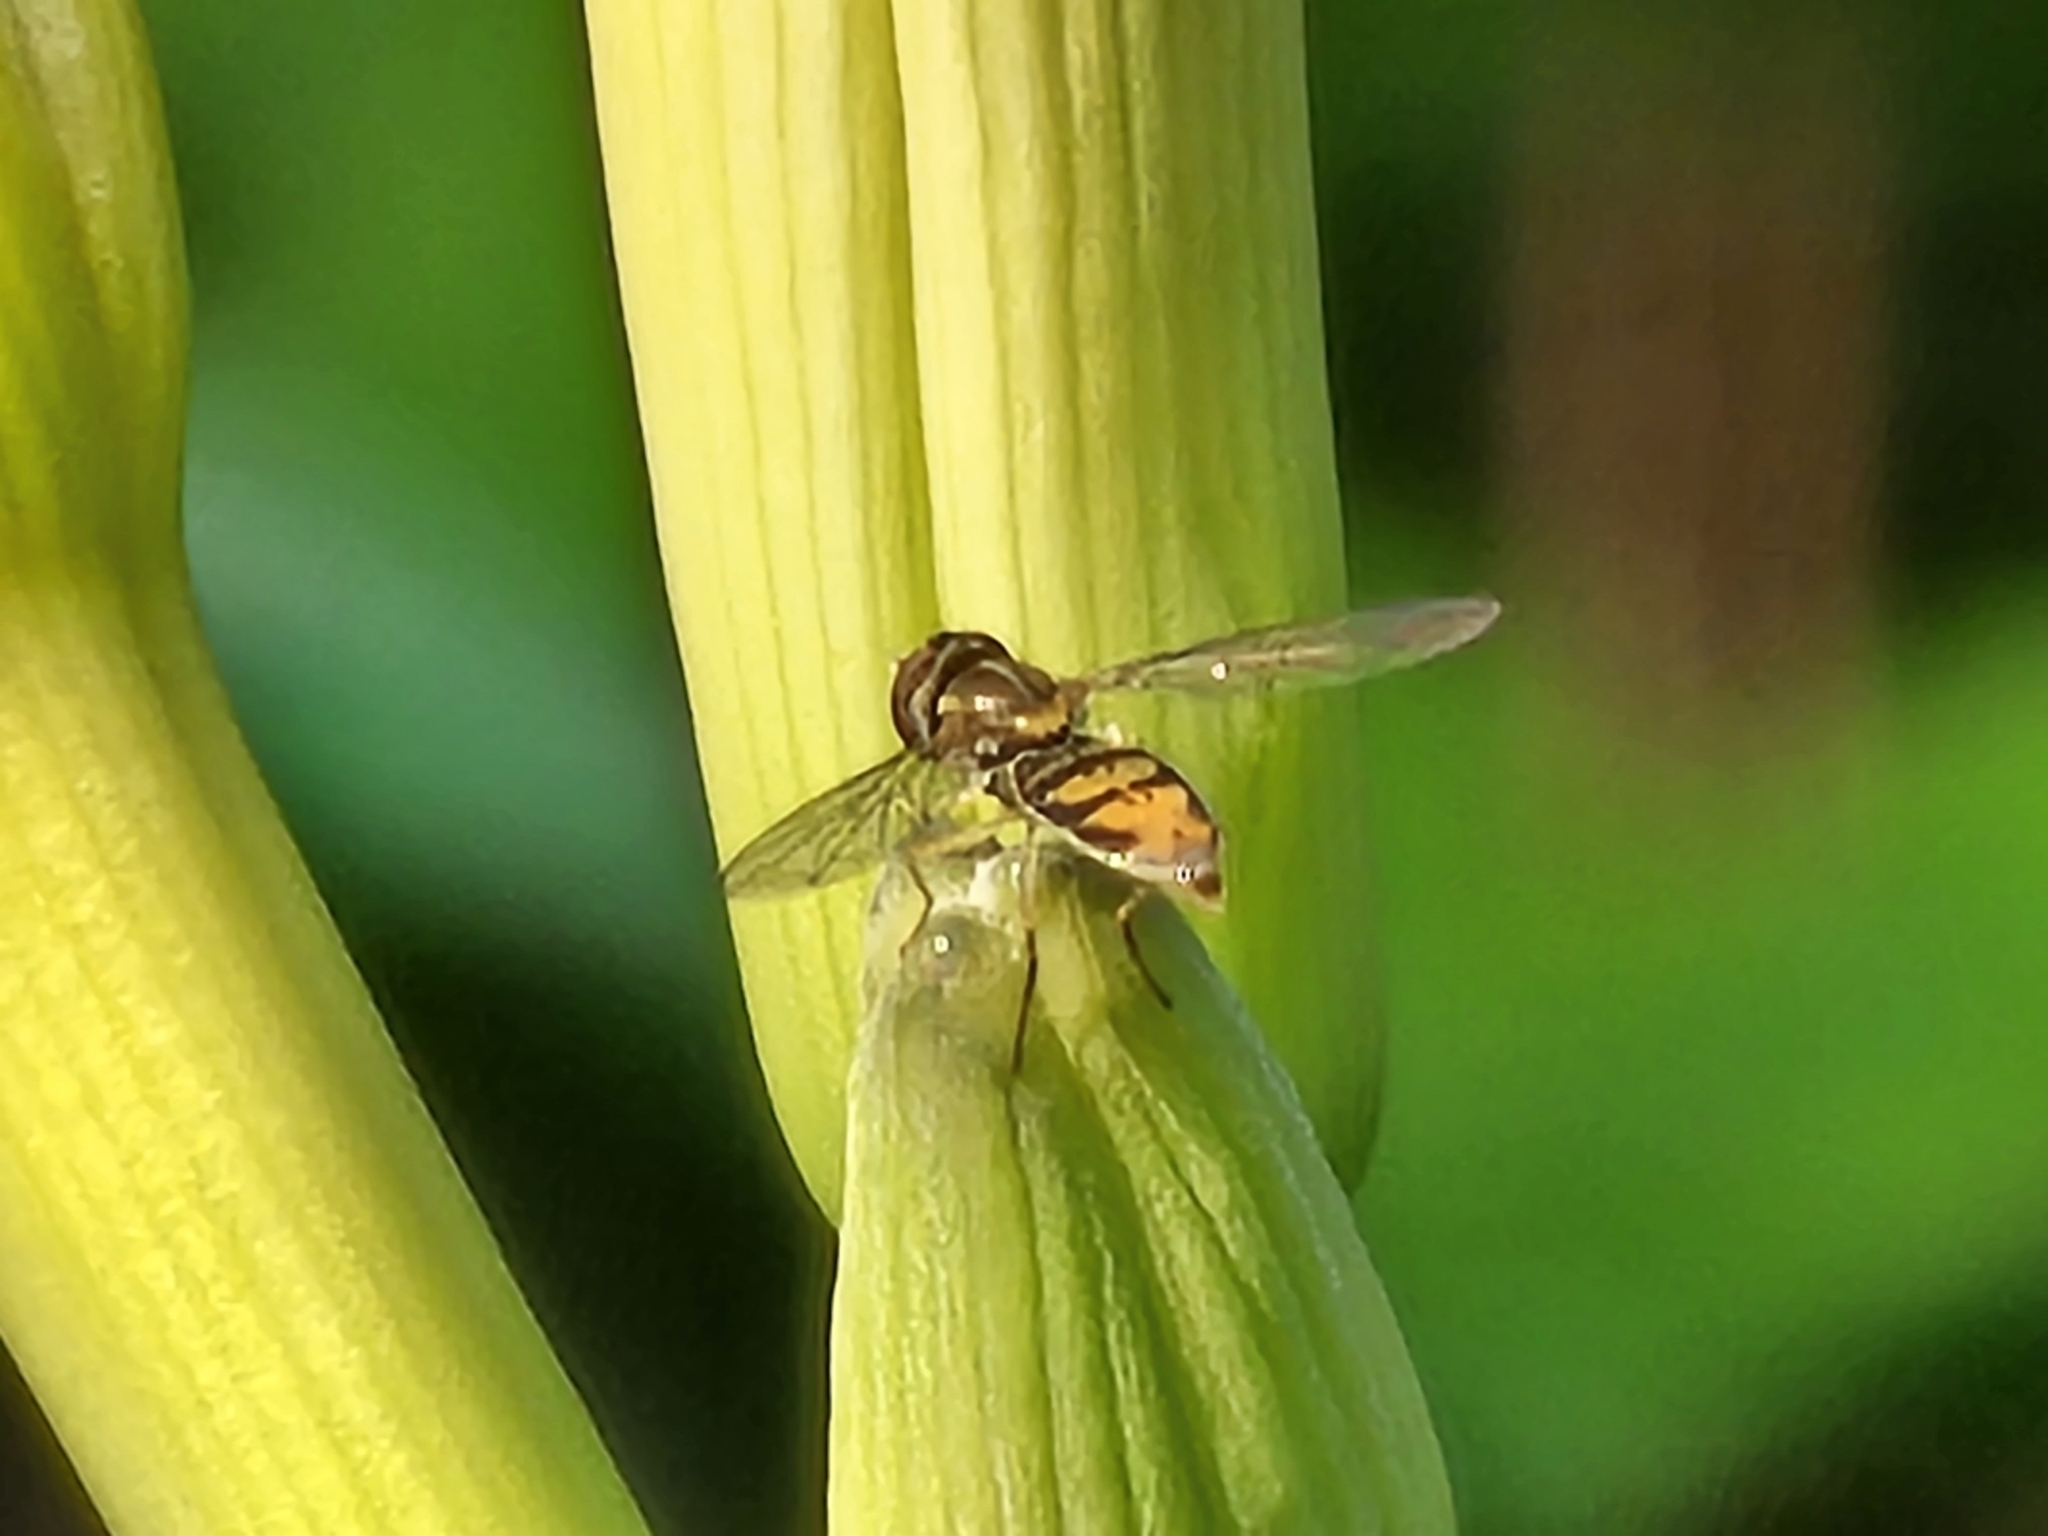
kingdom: Animalia
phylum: Arthropoda
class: Insecta
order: Diptera
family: Syrphidae
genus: Toxomerus
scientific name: Toxomerus marginatus
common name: Syrphid fly
